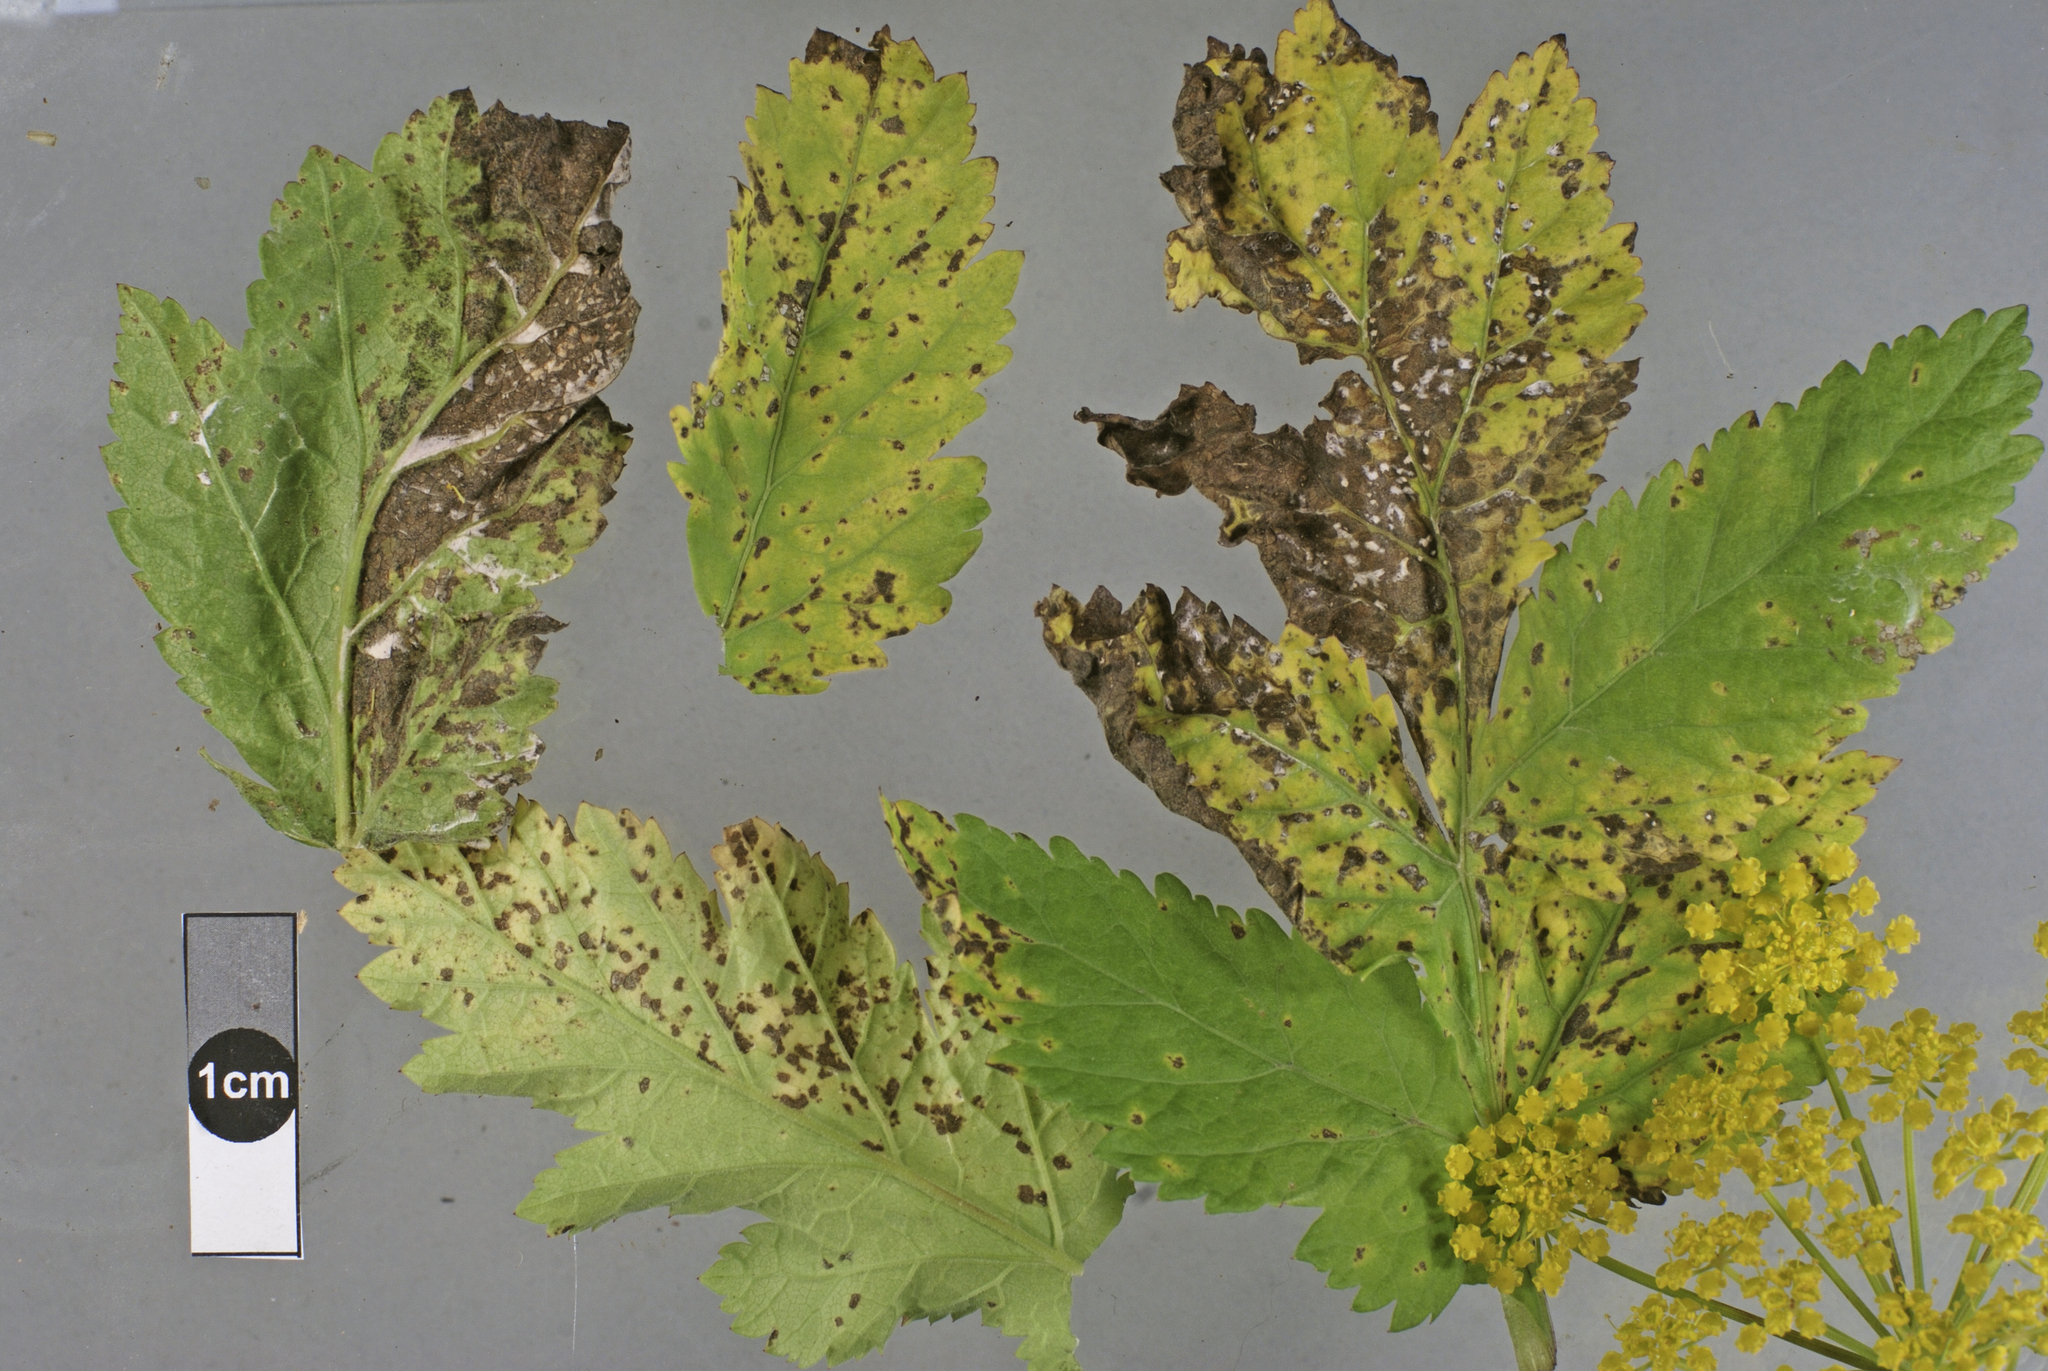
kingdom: Fungi
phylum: Ascomycota
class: Dothideomycetes
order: Mycosphaerellales
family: Mycosphaerellaceae
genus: Phloeospora
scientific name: Phloeospora crescentium
